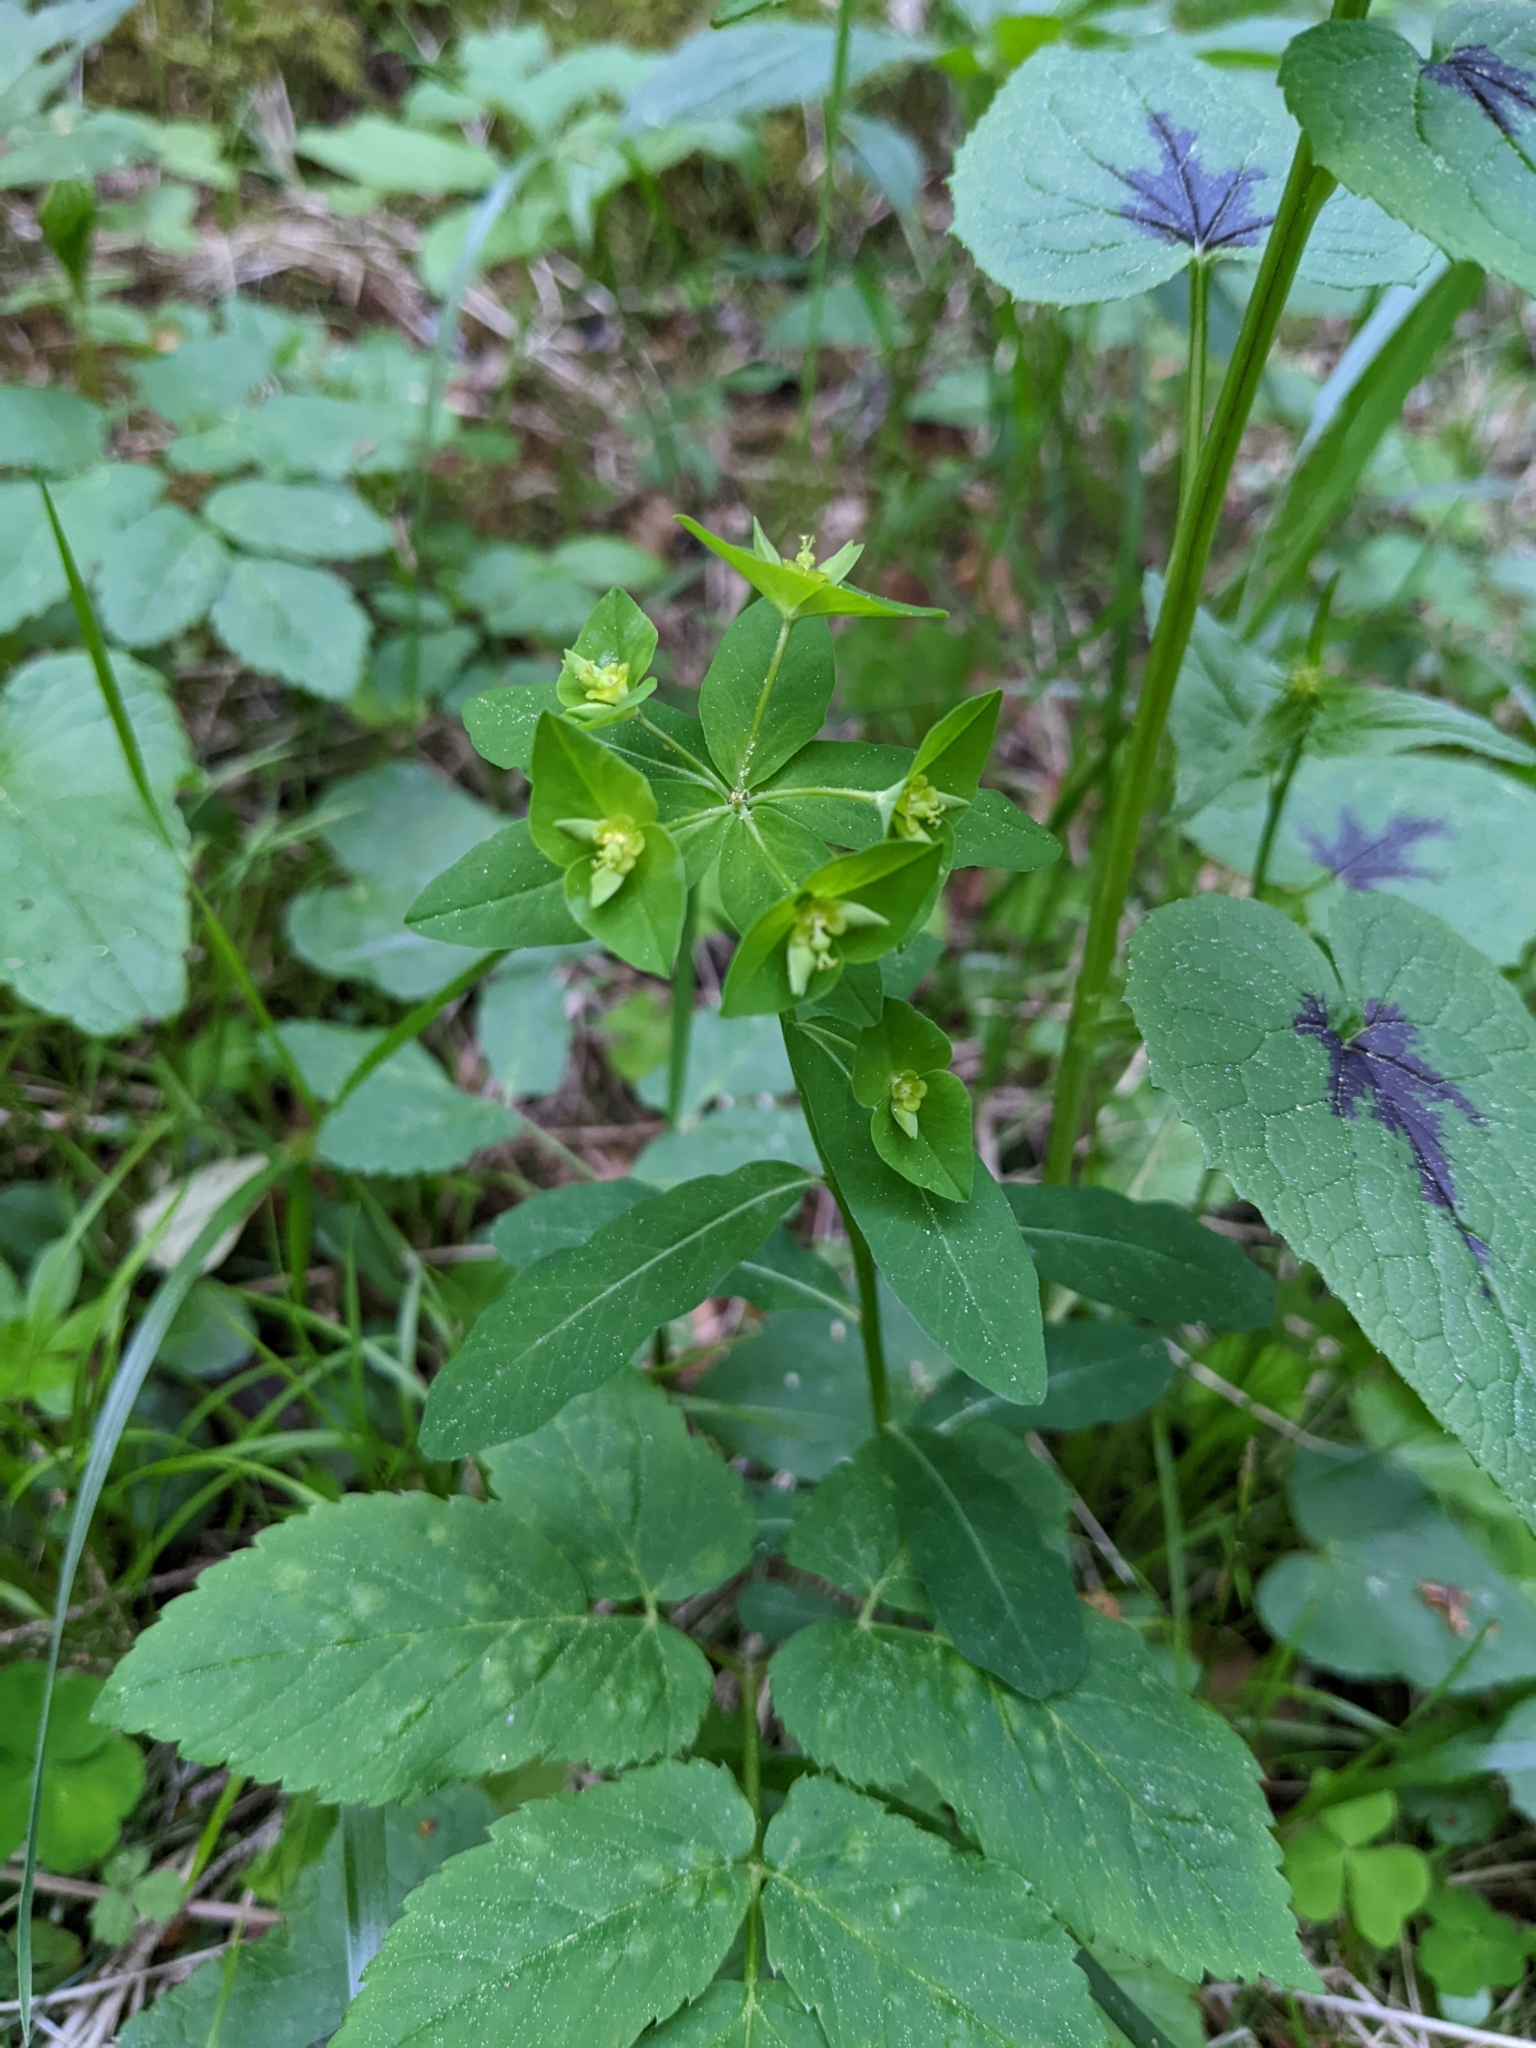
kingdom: Plantae
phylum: Tracheophyta
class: Magnoliopsida
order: Malpighiales
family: Euphorbiaceae
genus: Euphorbia
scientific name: Euphorbia dulcis
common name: Sweet spurge
